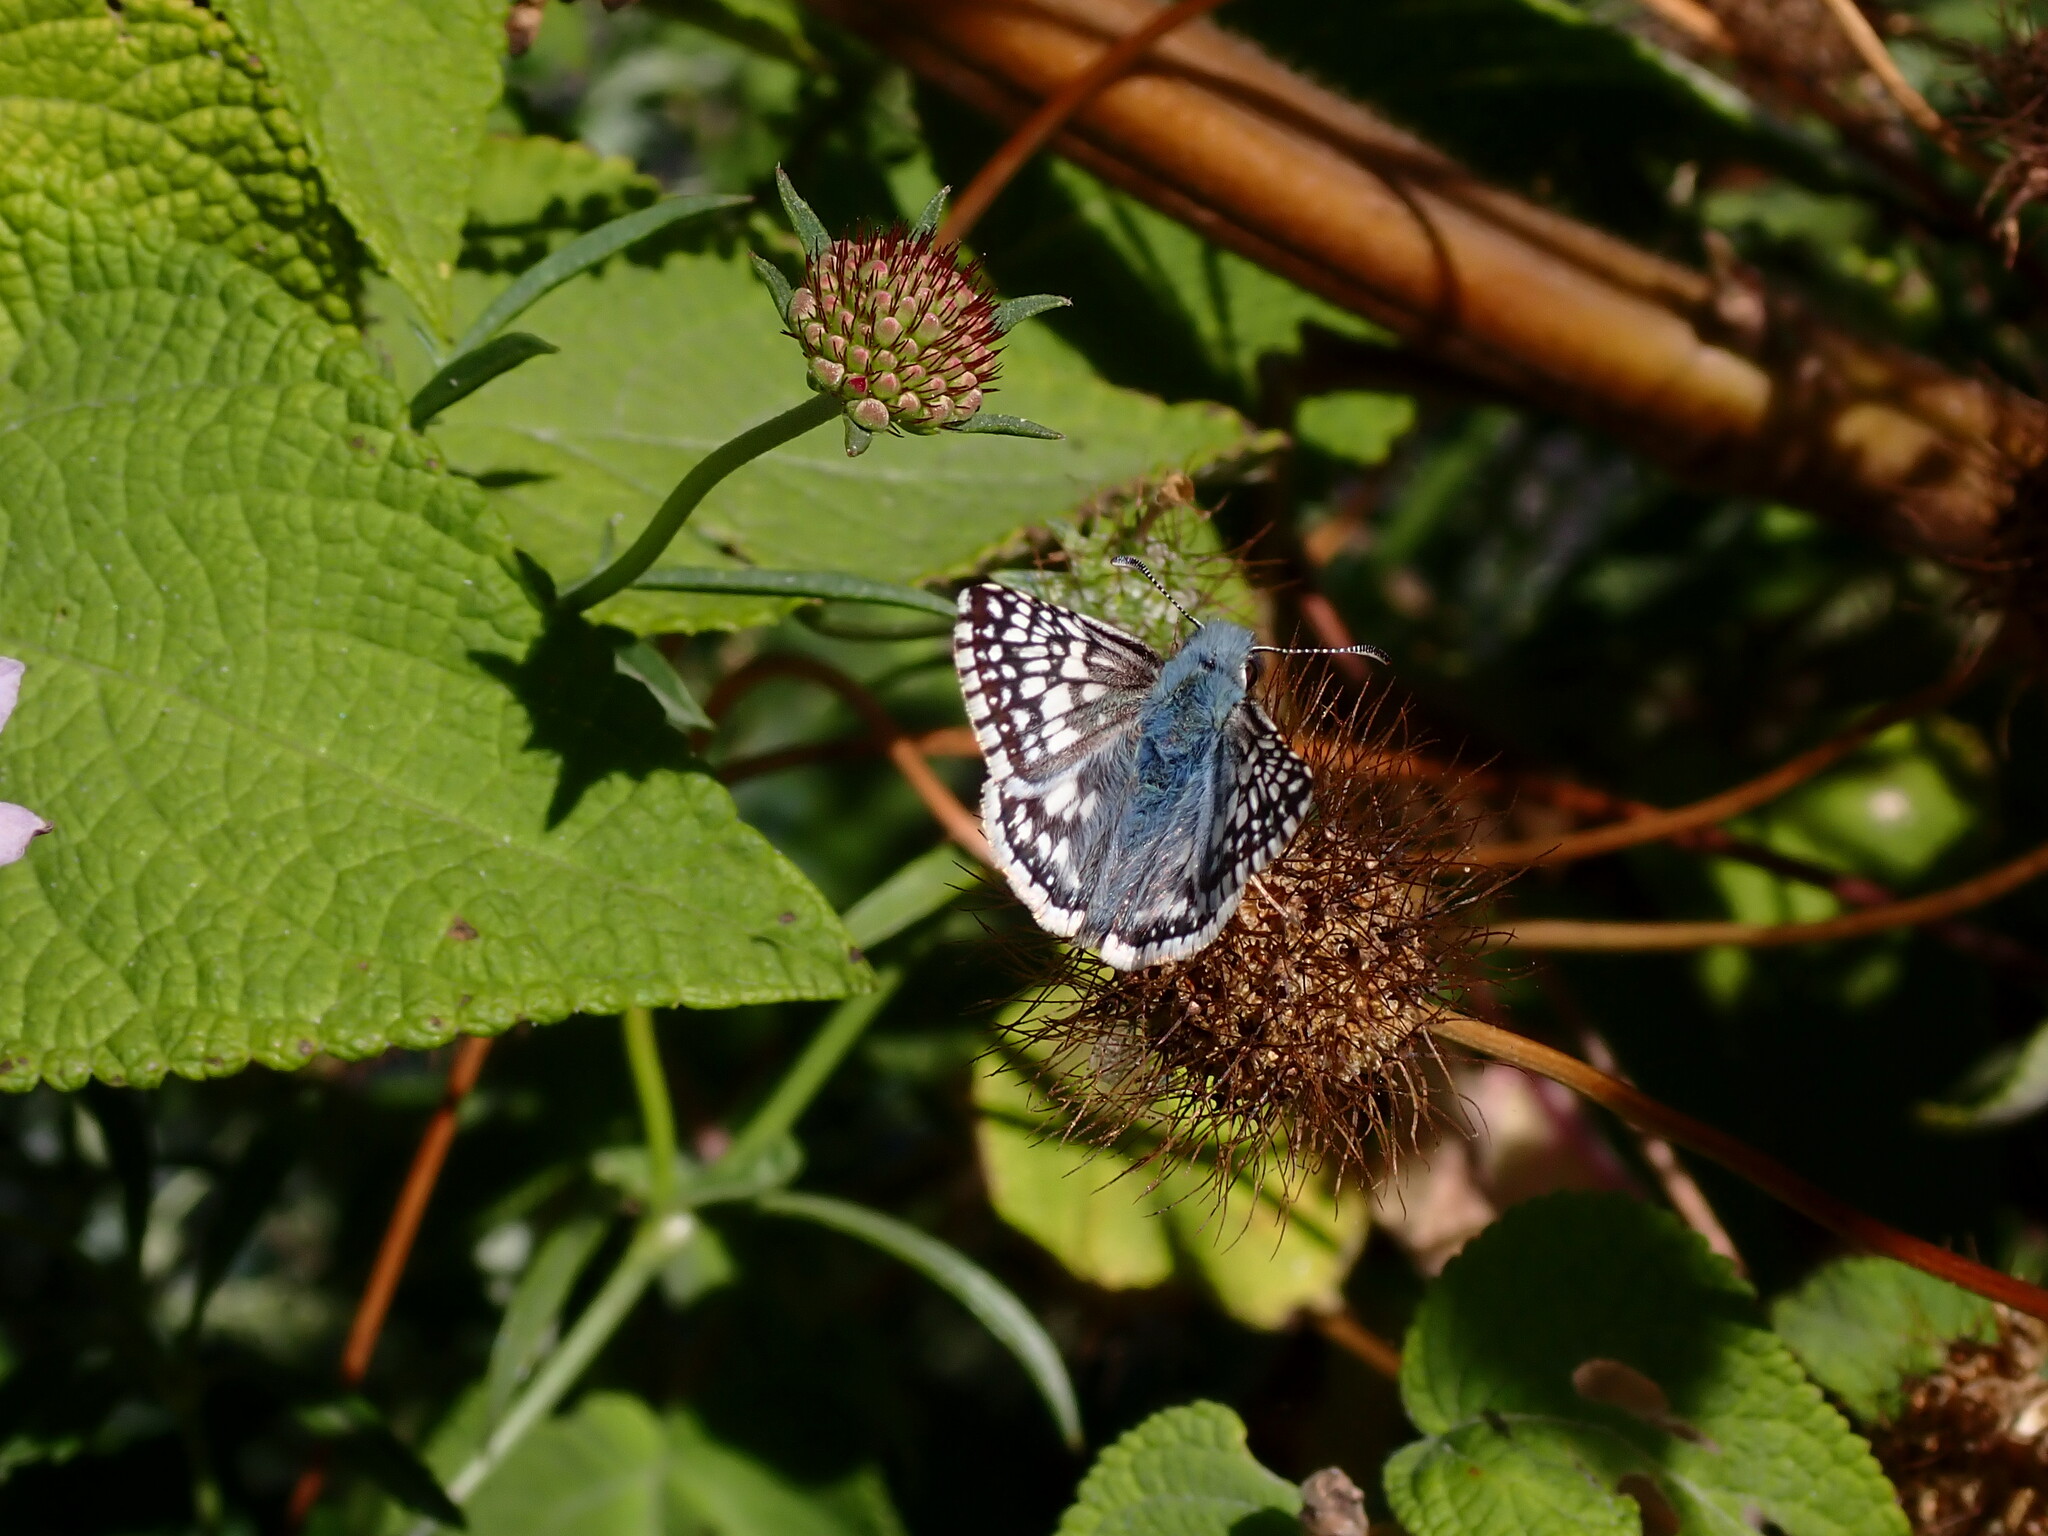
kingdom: Animalia
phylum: Arthropoda
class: Insecta
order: Lepidoptera
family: Hesperiidae
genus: Burnsius
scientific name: Burnsius communis
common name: Common checkered-skipper
